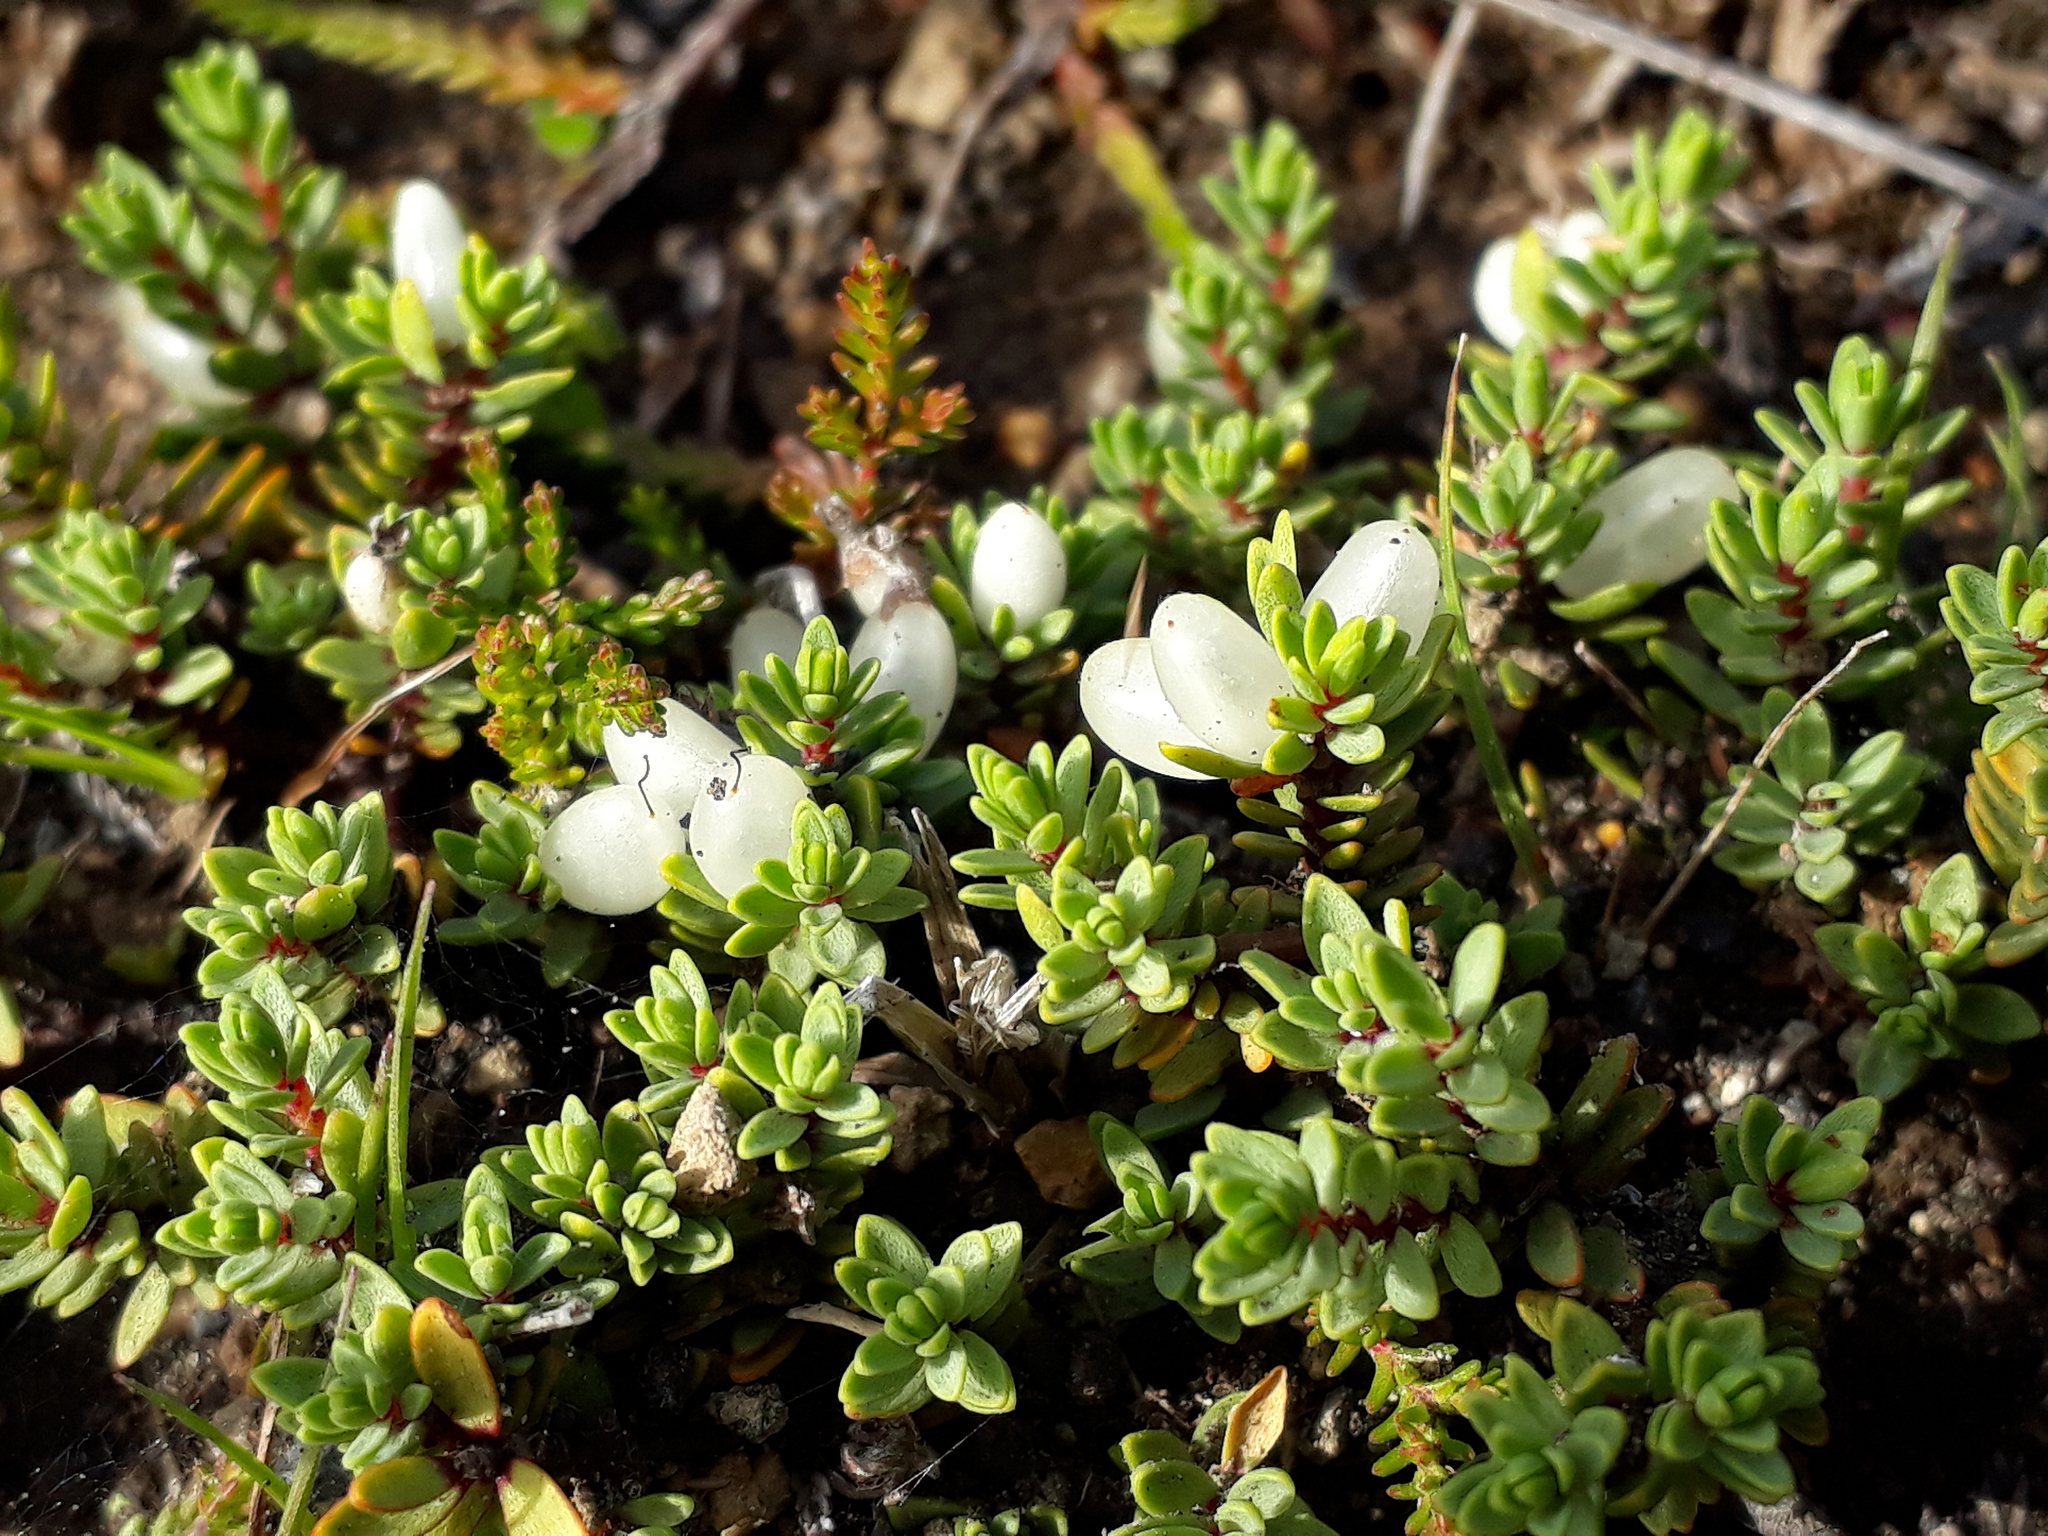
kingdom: Plantae
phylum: Tracheophyta
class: Magnoliopsida
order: Malvales
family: Thymelaeaceae
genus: Pimelea
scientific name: Pimelea prostrata
